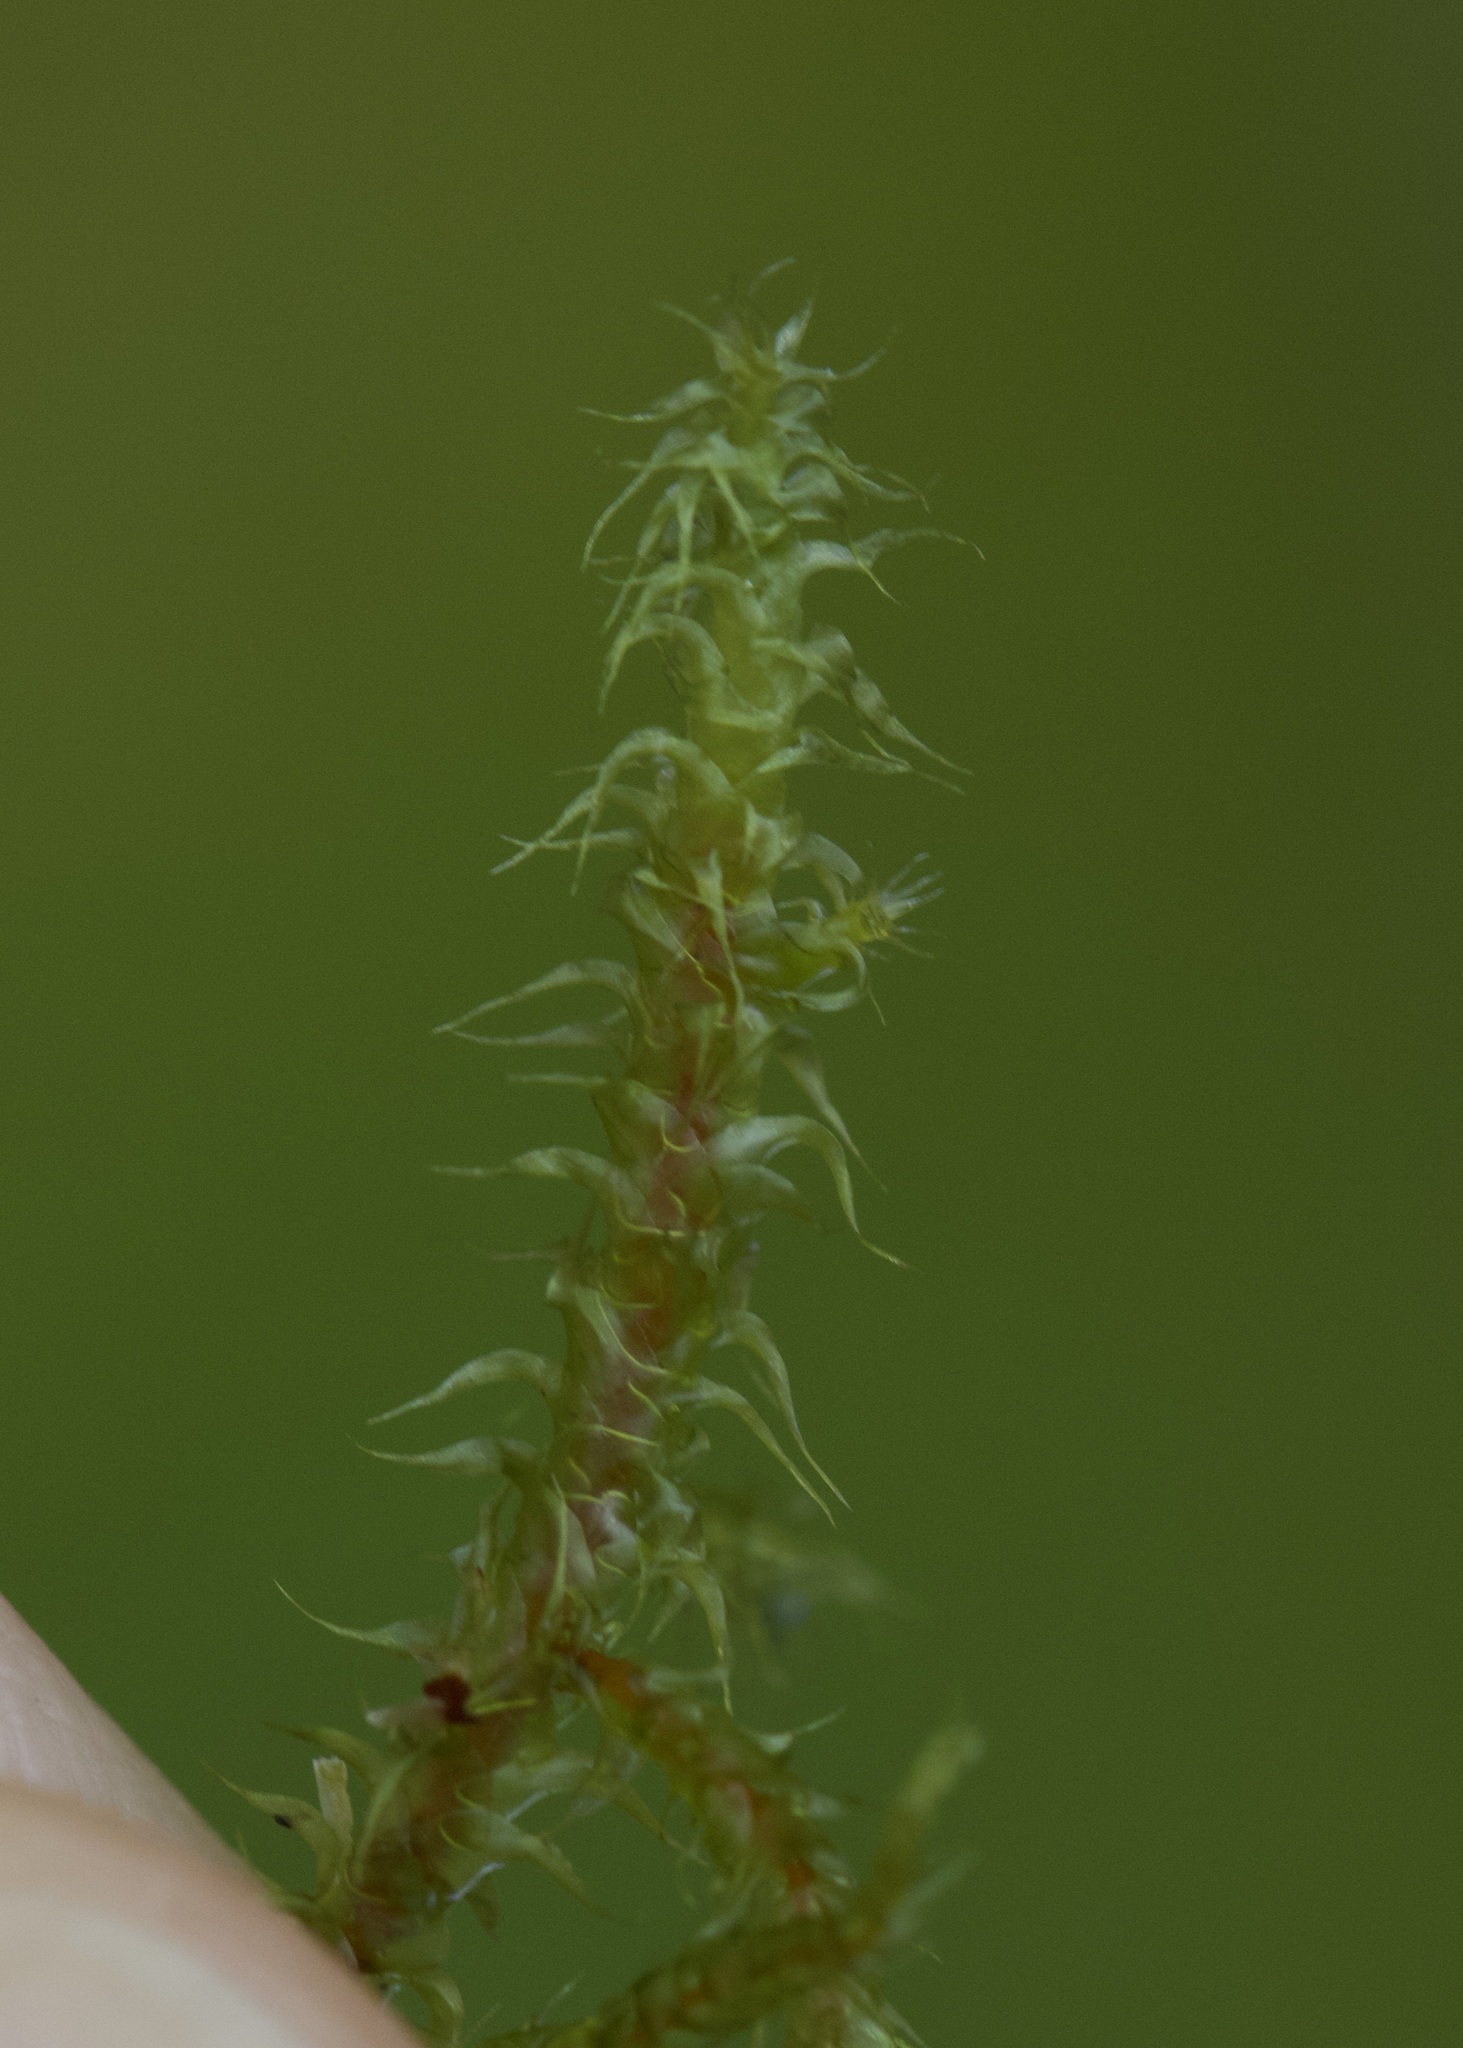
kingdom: Plantae
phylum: Bryophyta
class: Bryopsida
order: Hypnales
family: Hylocomiaceae
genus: Rhytidiadelphus
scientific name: Rhytidiadelphus squarrosus
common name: Springy turf-moss
